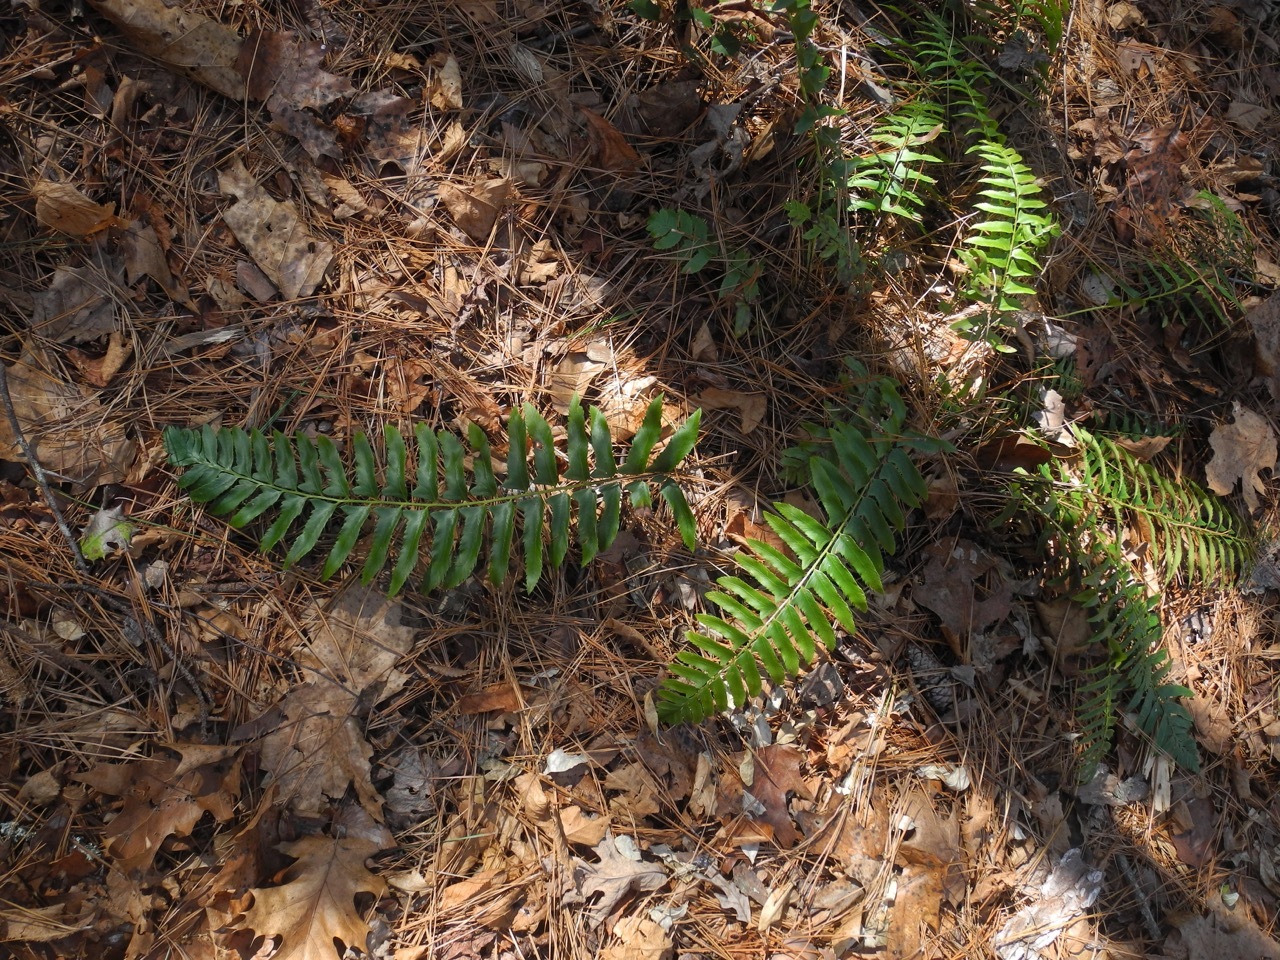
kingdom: Plantae
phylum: Tracheophyta
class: Polypodiopsida
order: Polypodiales
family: Dryopteridaceae
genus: Polystichum
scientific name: Polystichum acrostichoides
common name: Christmas fern
